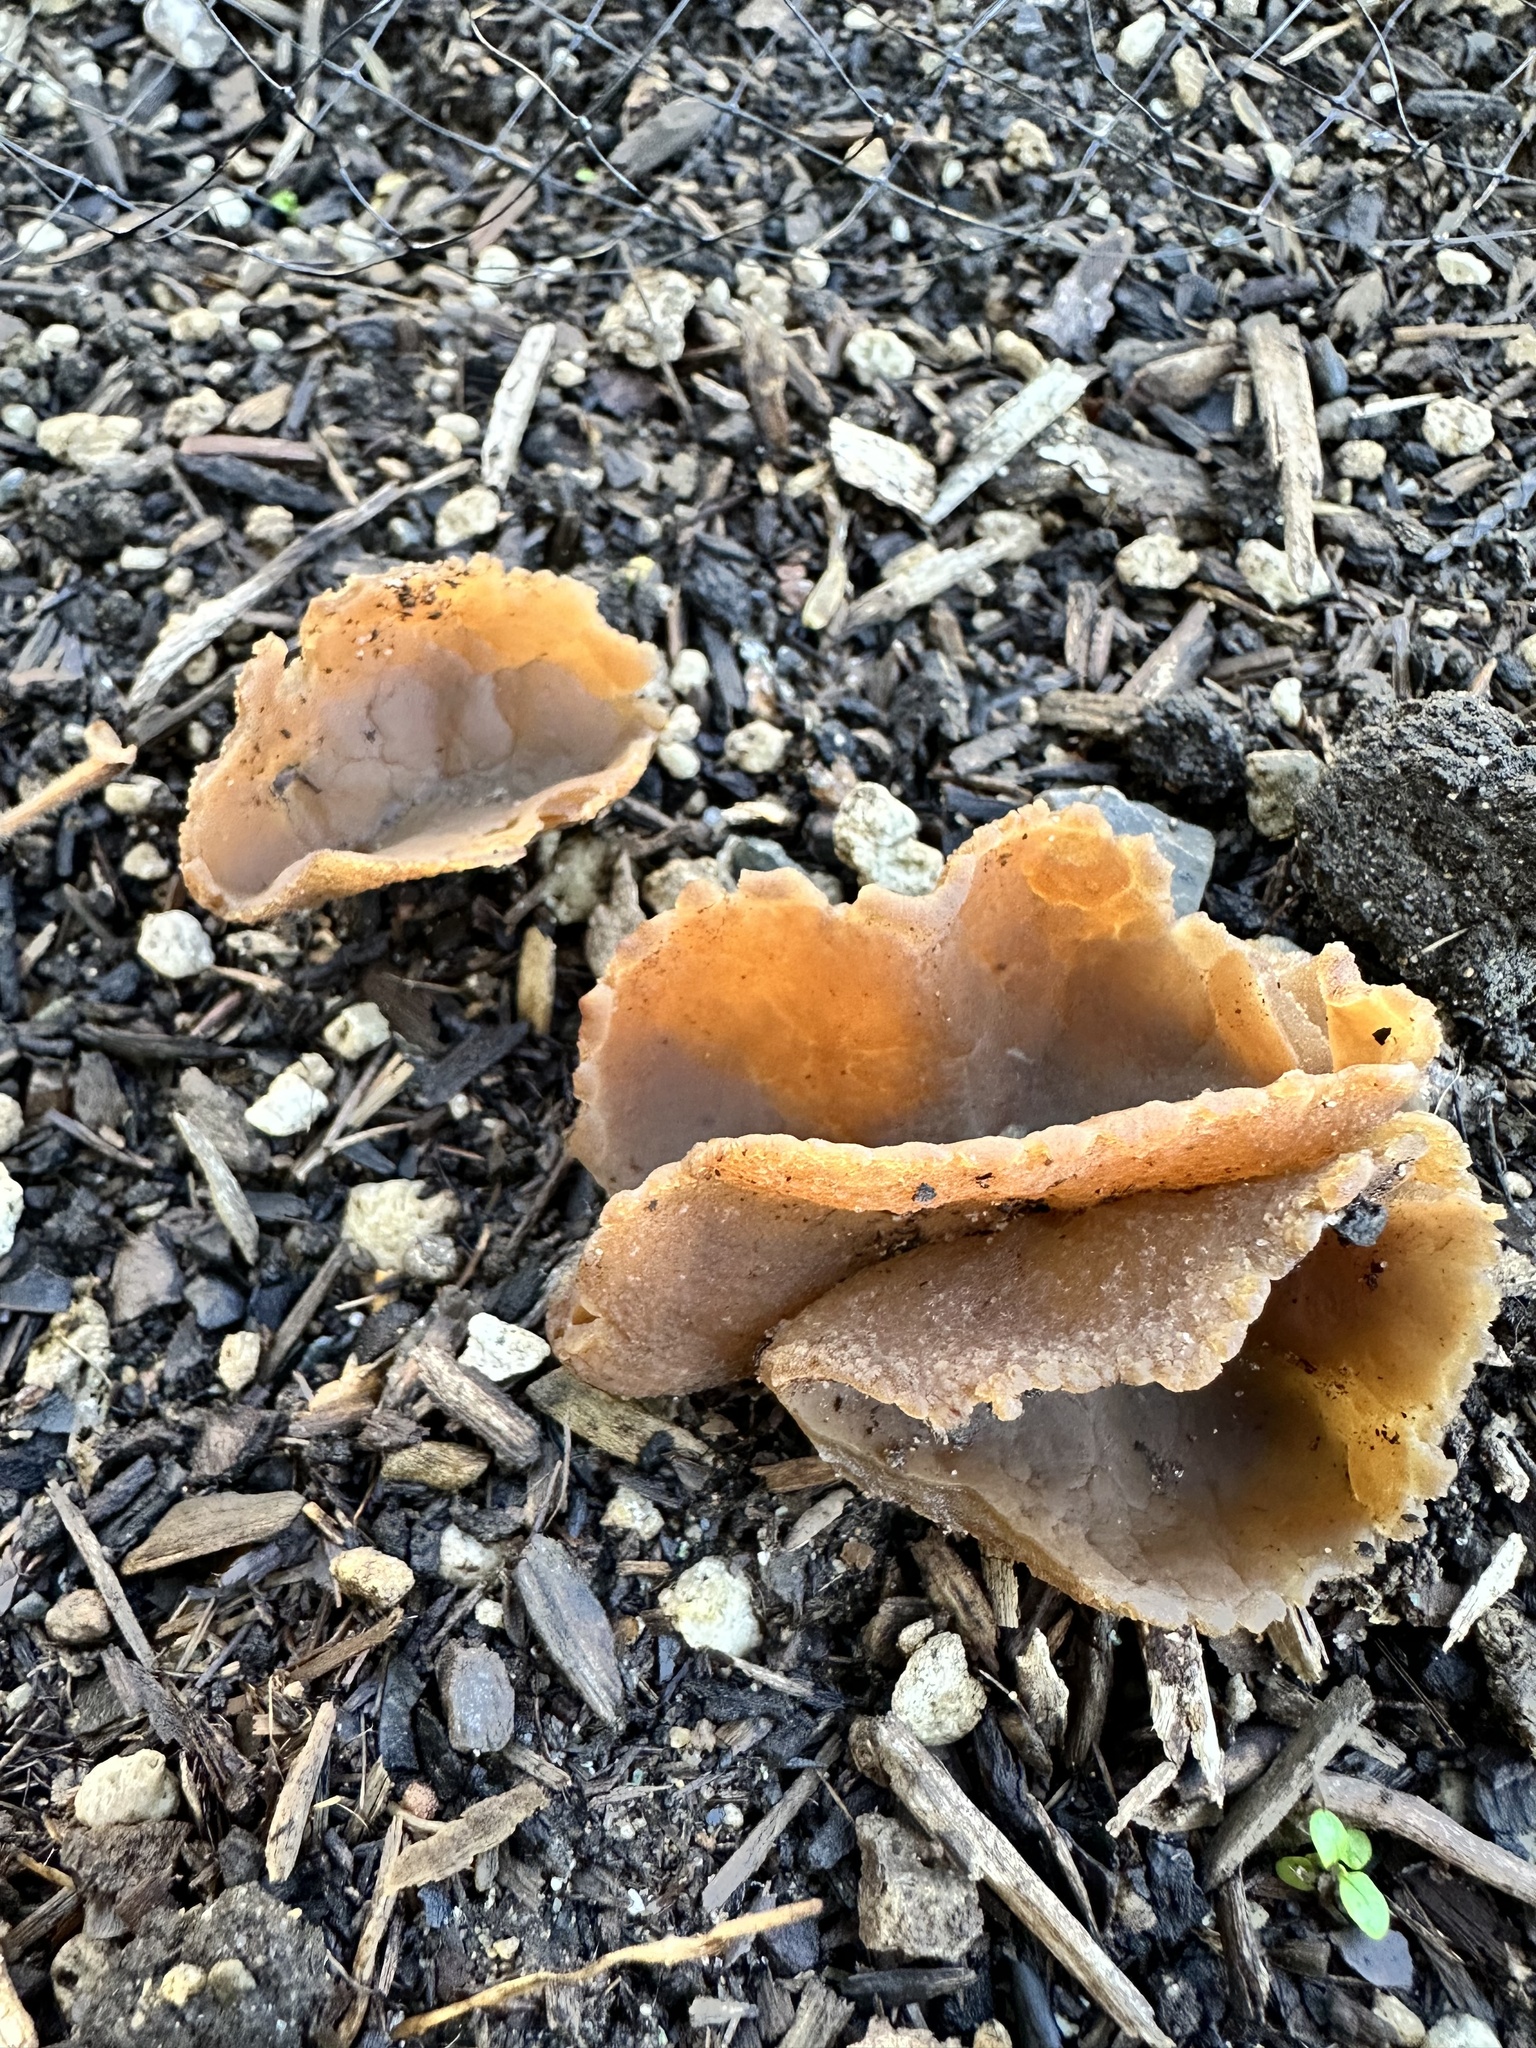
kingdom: Fungi
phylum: Ascomycota
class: Pezizomycetes
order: Pezizales
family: Pezizaceae
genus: Peziza
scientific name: Peziza varia
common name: Layered cup
